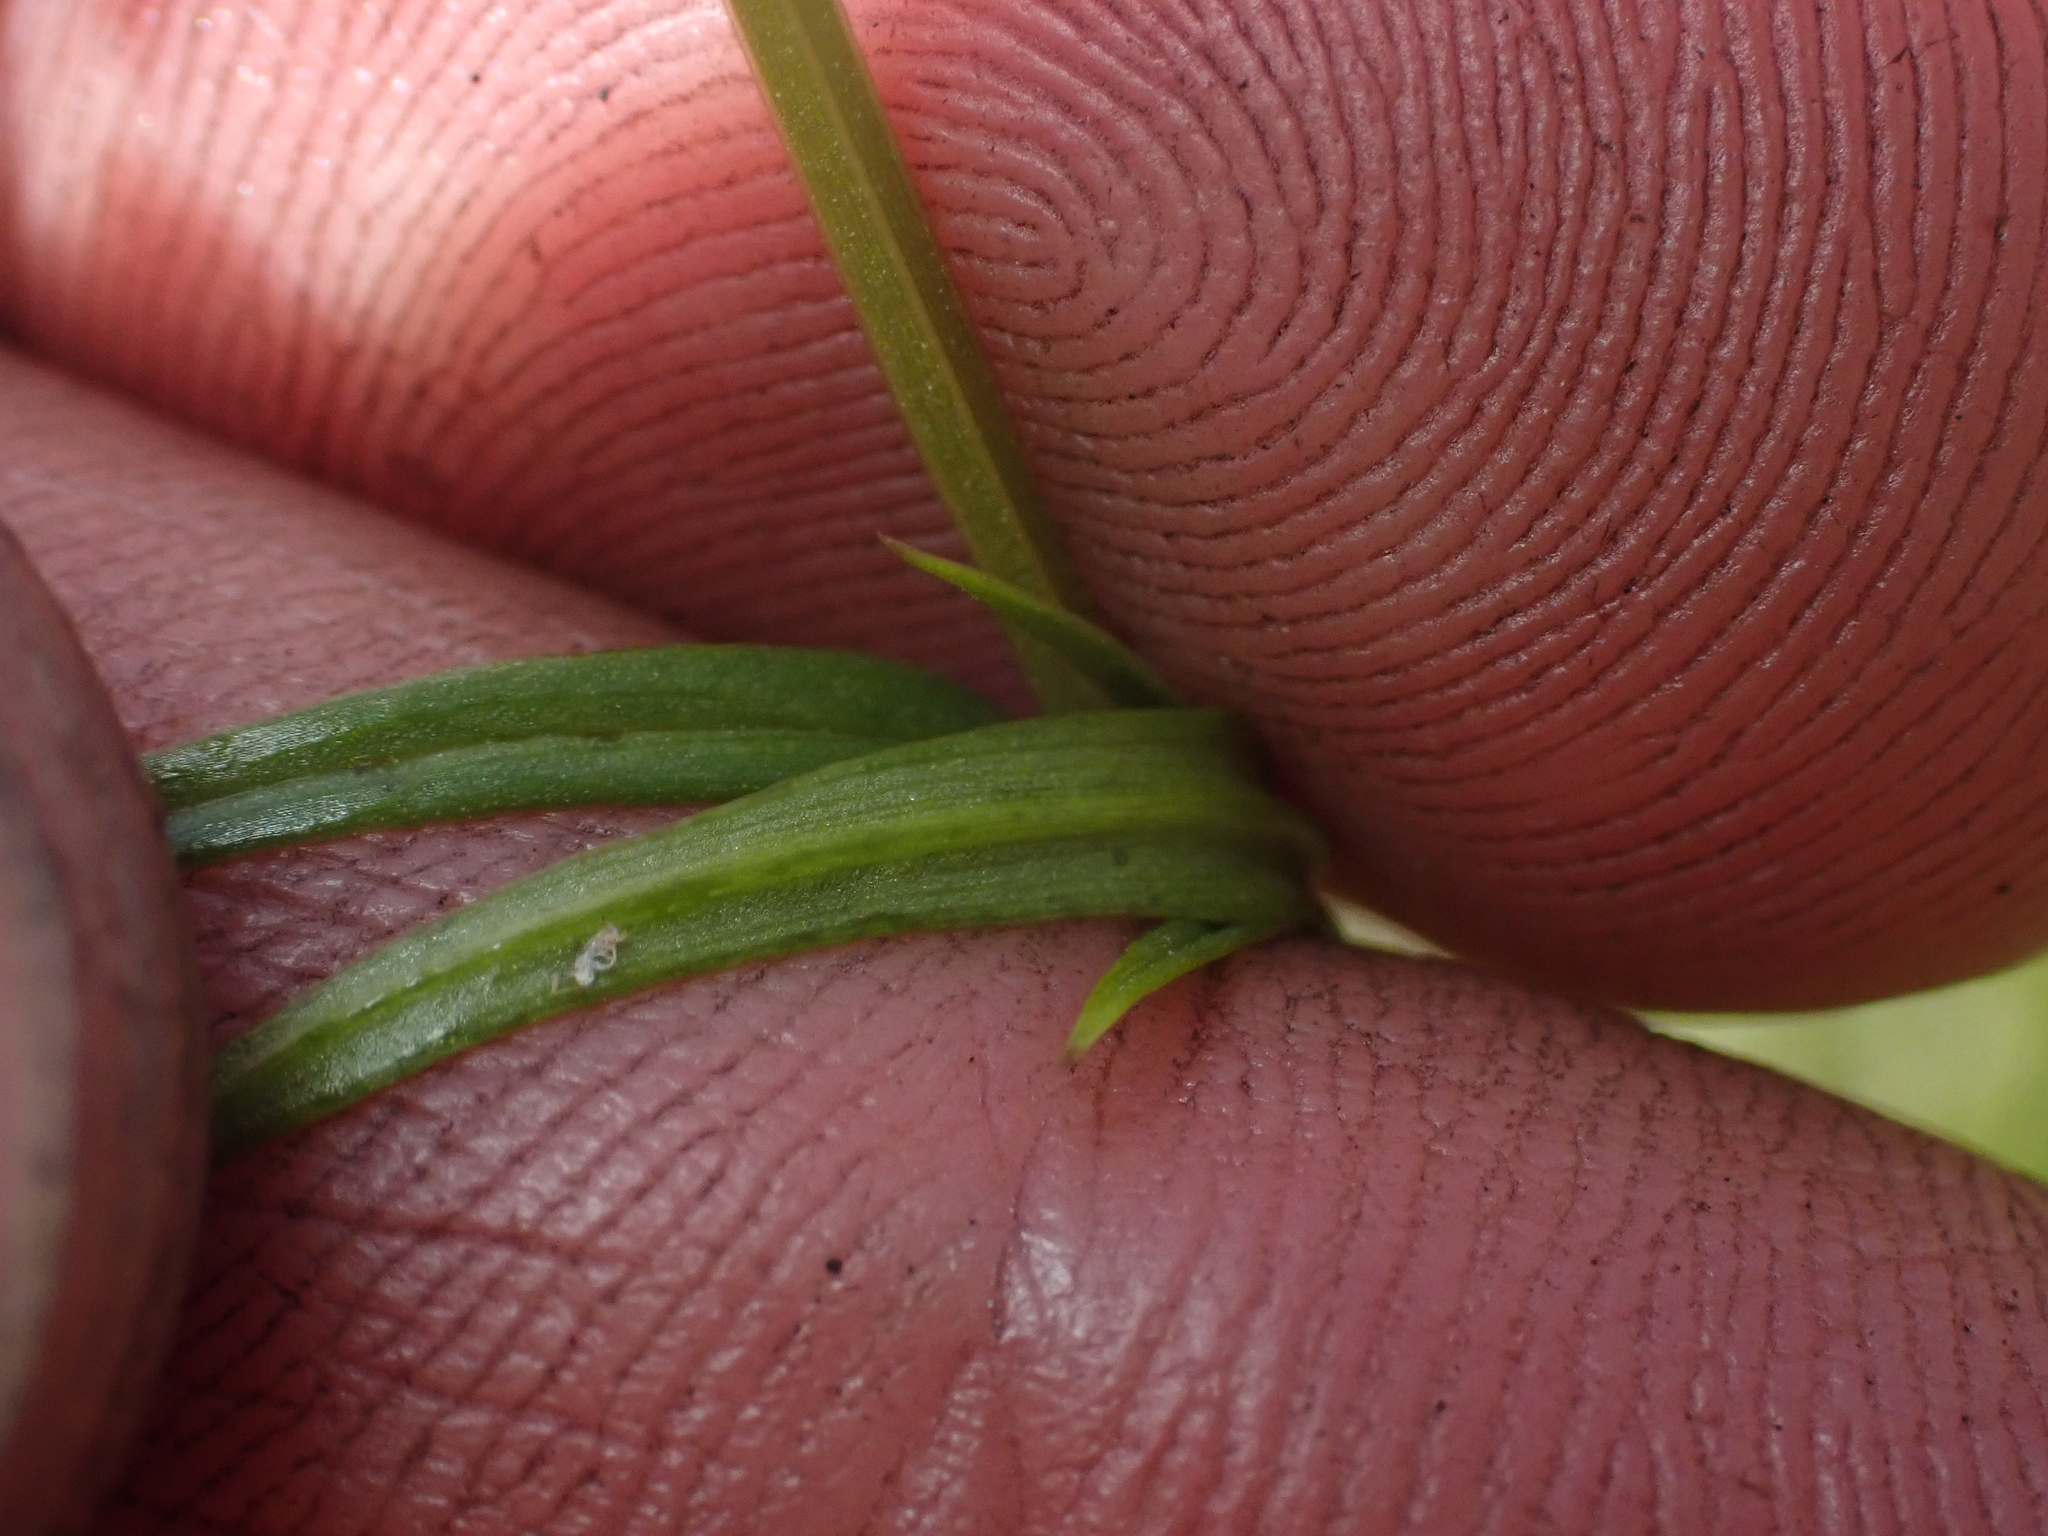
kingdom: Plantae
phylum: Tracheophyta
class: Magnoliopsida
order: Caryophyllales
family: Caryophyllaceae
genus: Stellaria
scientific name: Stellaria graminea
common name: Grass-like starwort
